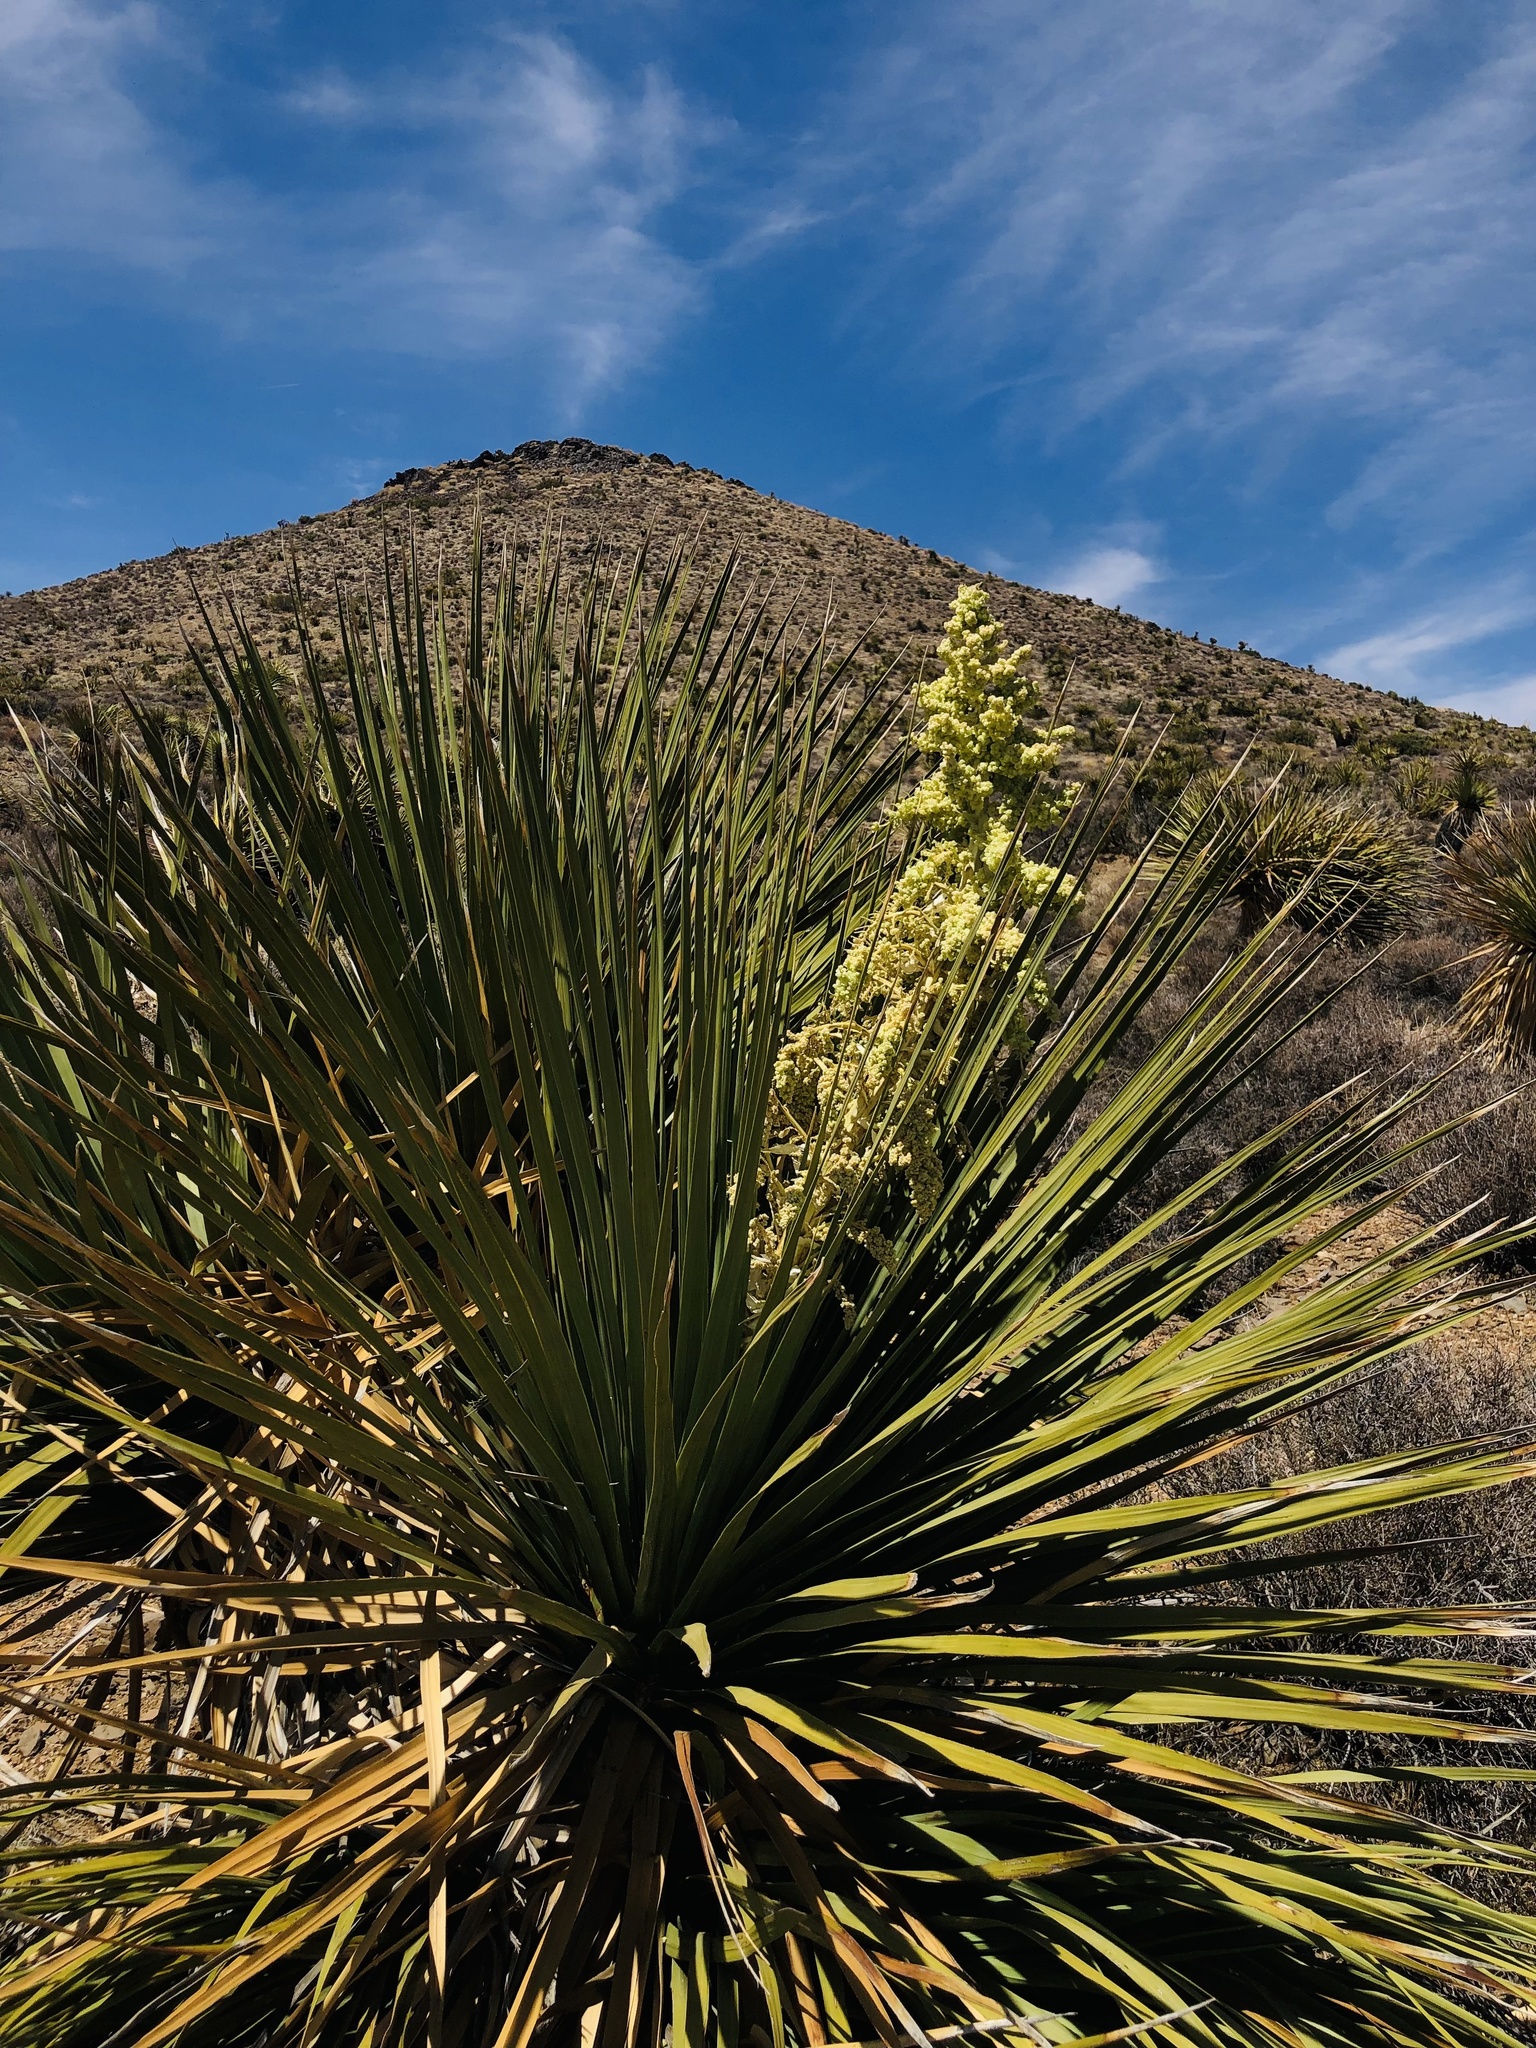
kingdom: Plantae
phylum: Tracheophyta
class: Liliopsida
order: Asparagales
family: Asparagaceae
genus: Nolina
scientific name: Nolina parryi
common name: Parry nolina
